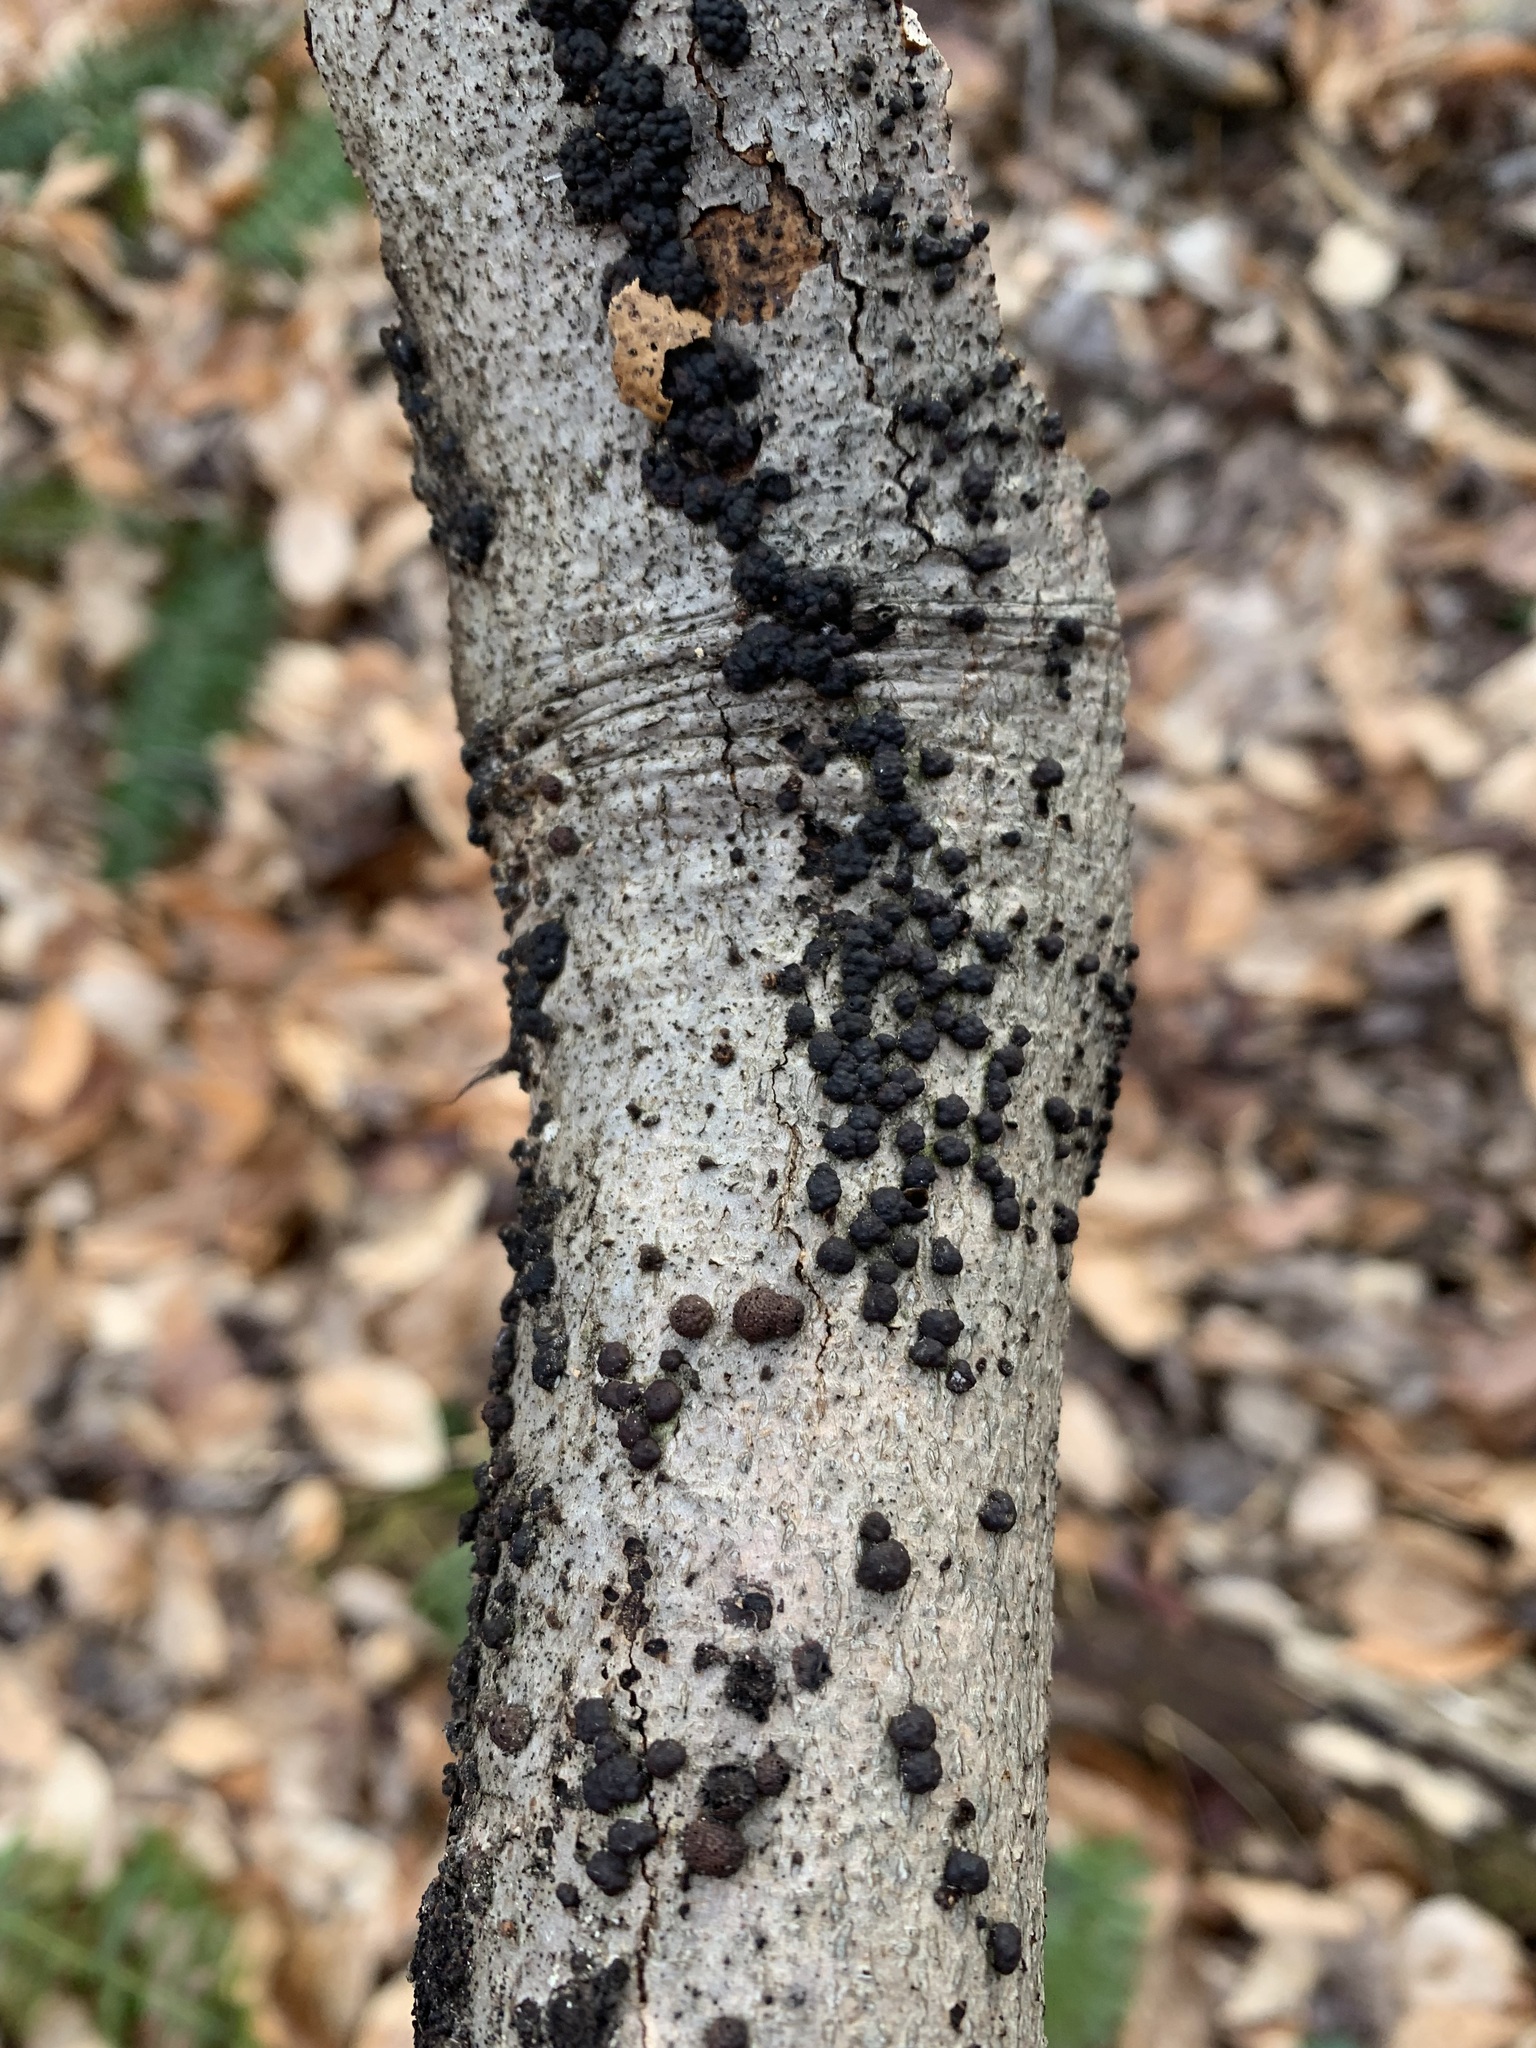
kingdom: Fungi
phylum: Ascomycota
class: Sordariomycetes
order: Xylariales
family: Hypoxylaceae
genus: Hypoxylon
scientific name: Hypoxylon fragiforme
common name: Beech woodwart
